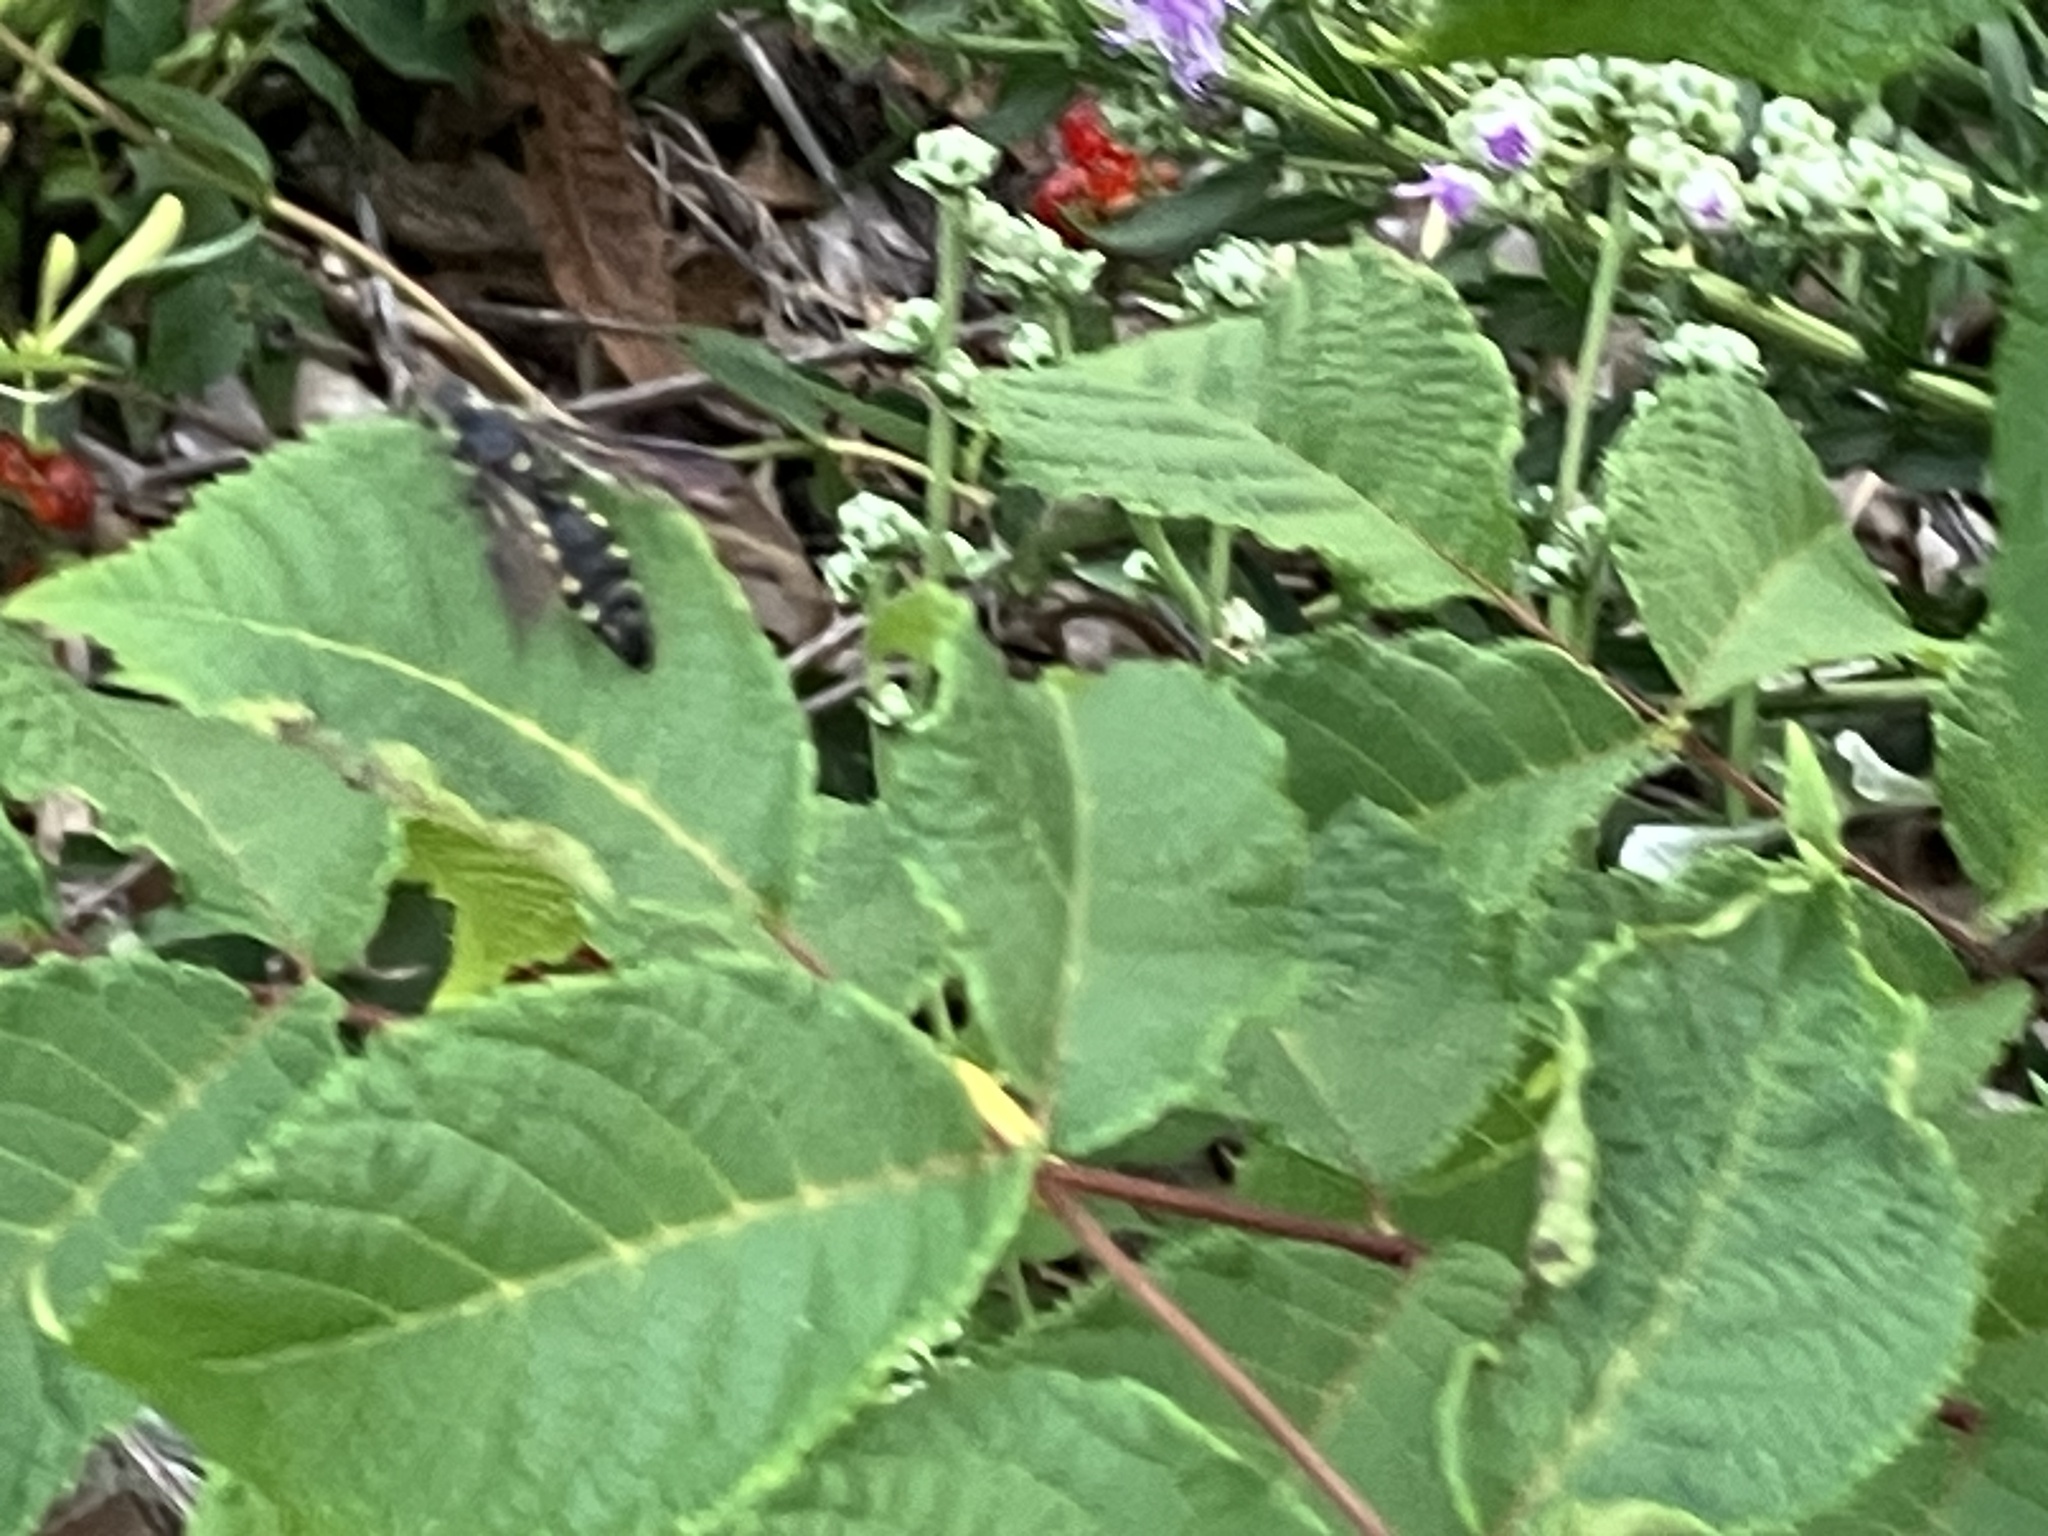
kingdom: Animalia
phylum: Arthropoda
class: Insecta
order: Hymenoptera
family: Tiphiidae
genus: Myzinum
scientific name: Myzinum obscurum
